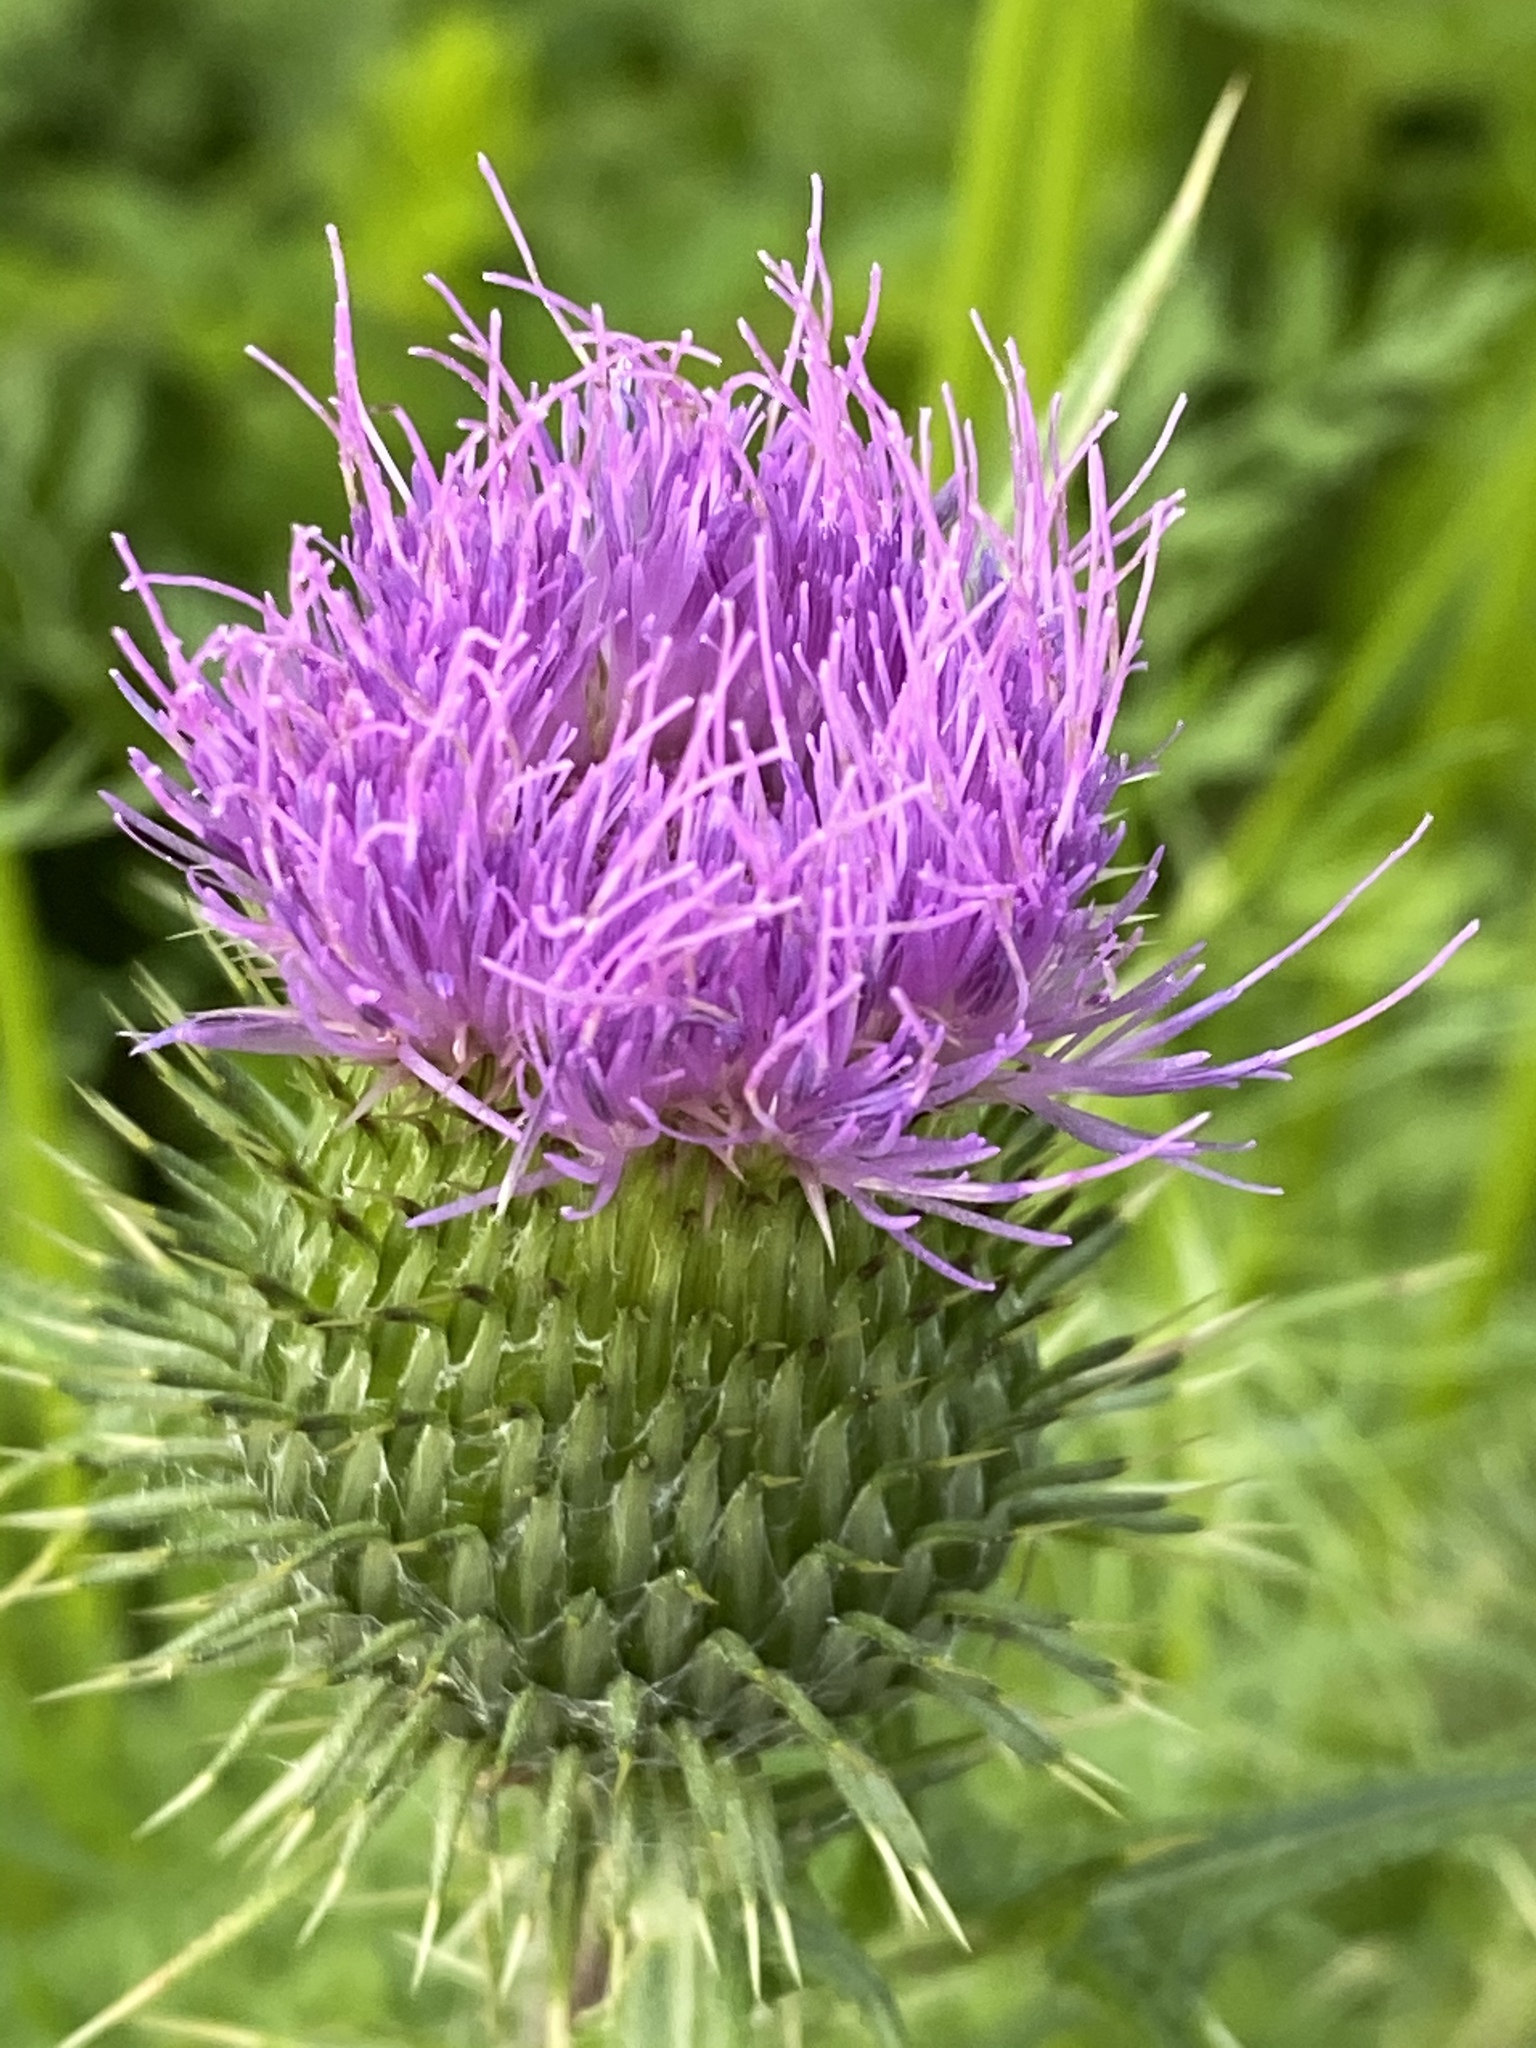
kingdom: Plantae
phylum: Tracheophyta
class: Magnoliopsida
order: Asterales
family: Asteraceae
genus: Cirsium
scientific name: Cirsium vulgare
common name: Bull thistle
